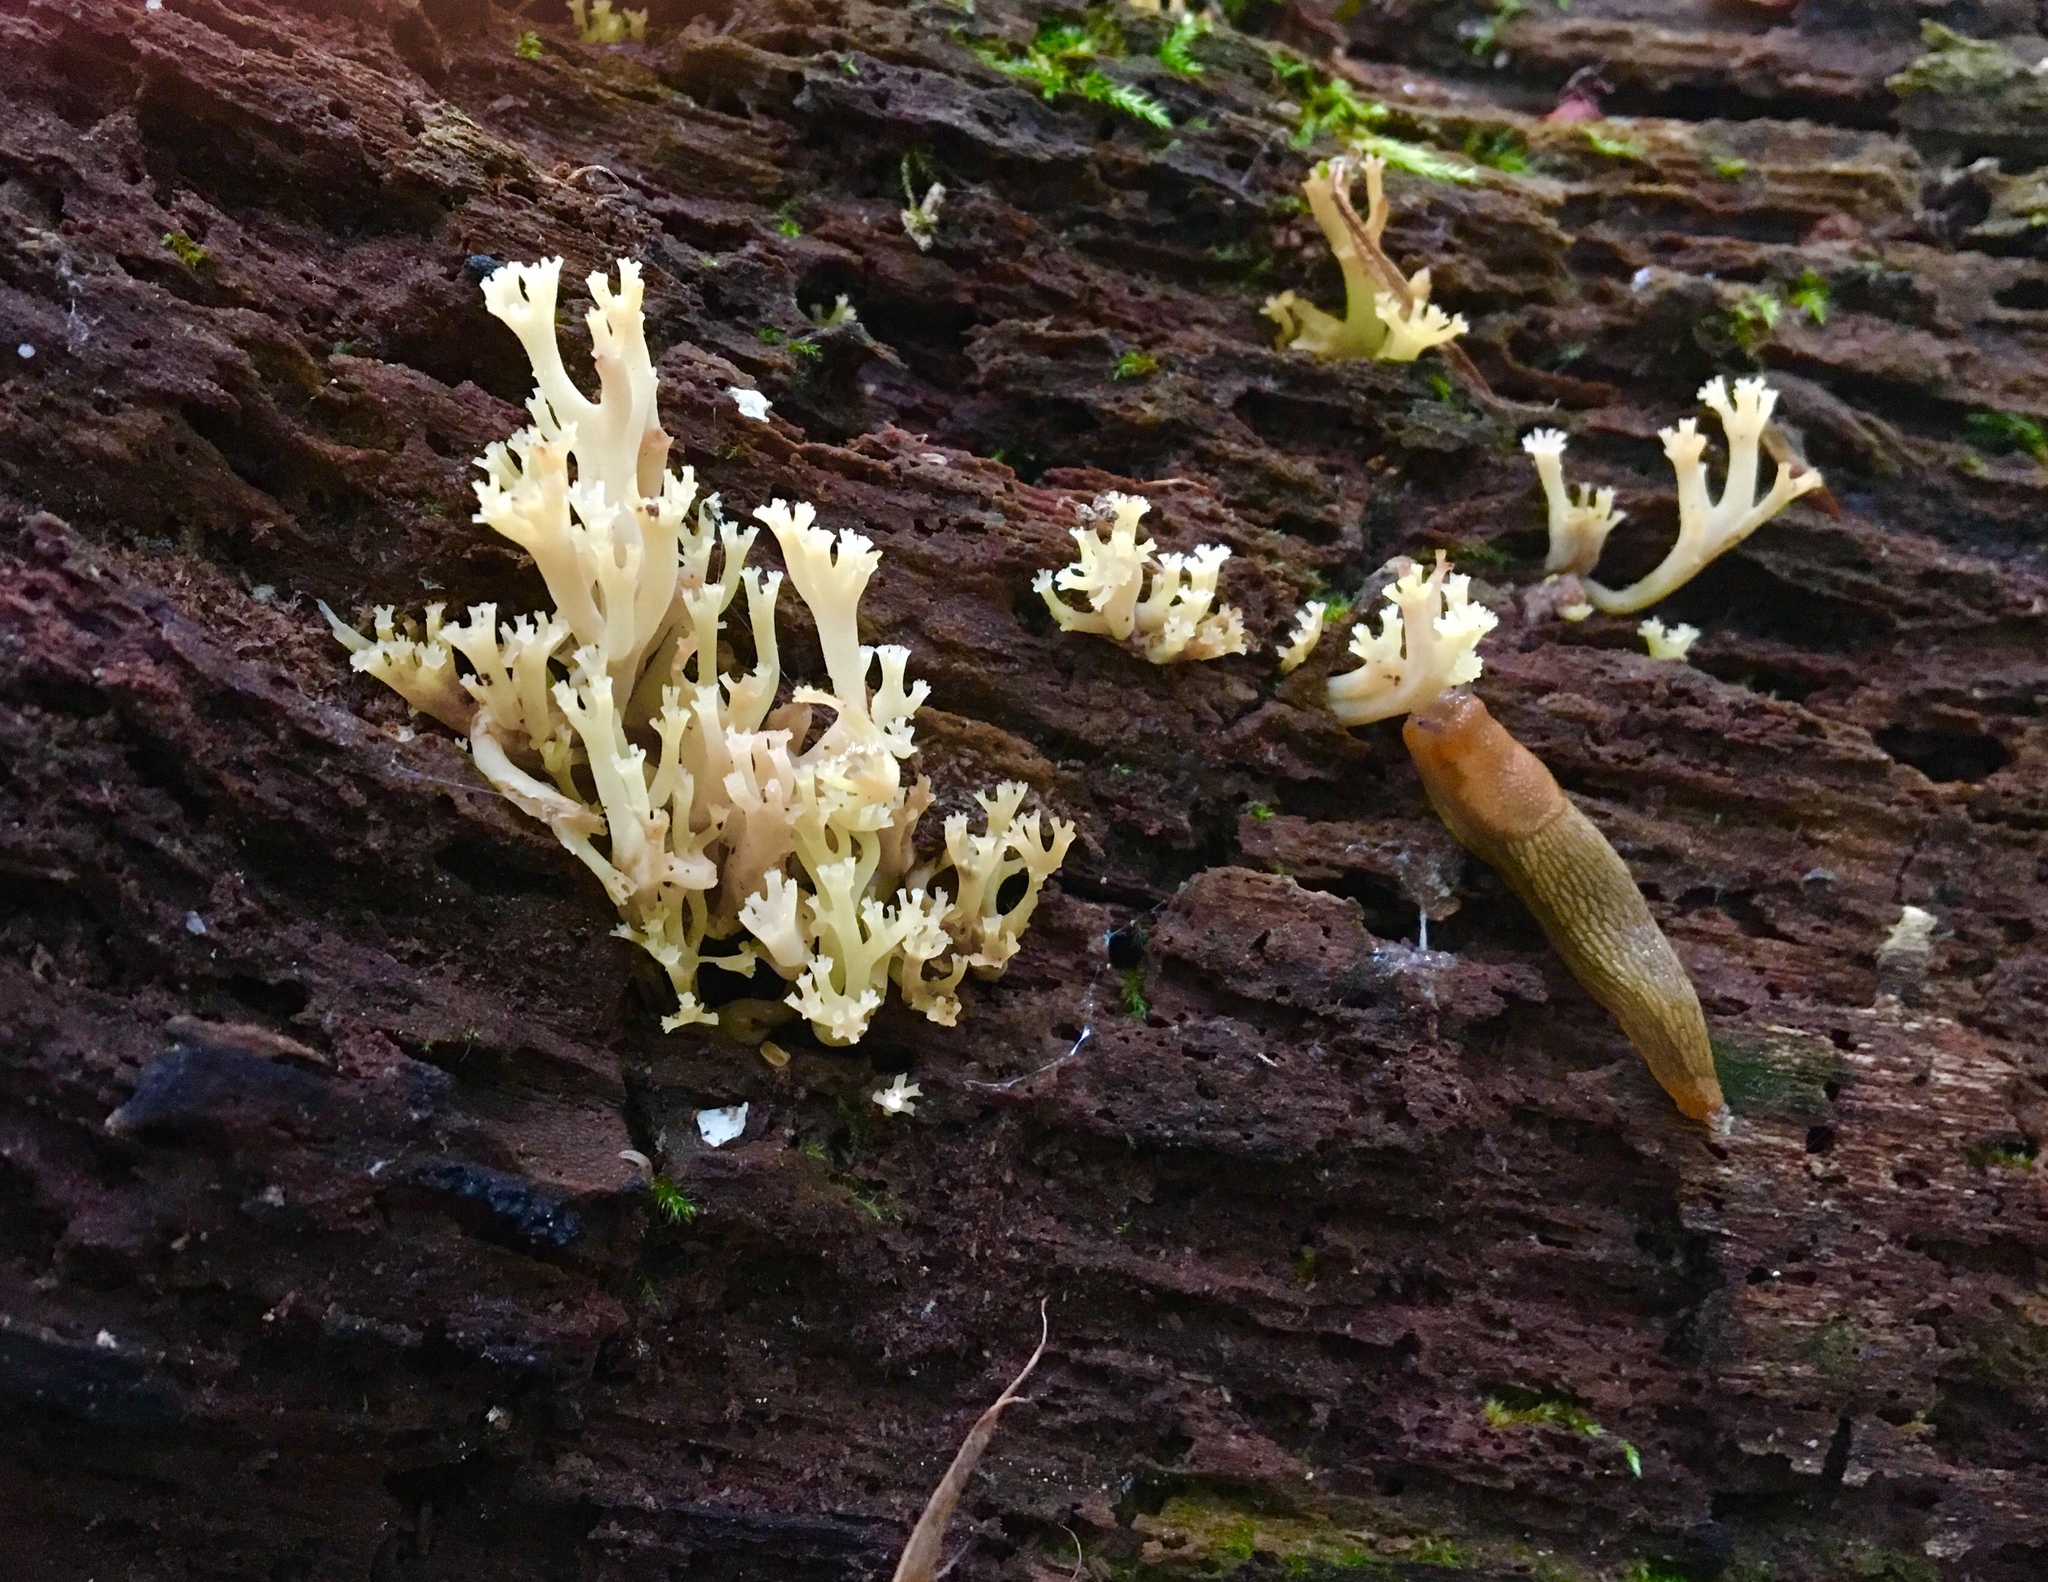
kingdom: Fungi
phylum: Basidiomycota
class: Agaricomycetes
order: Russulales
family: Auriscalpiaceae
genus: Artomyces
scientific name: Artomyces pyxidatus
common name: Crown-tipped coral fungus
